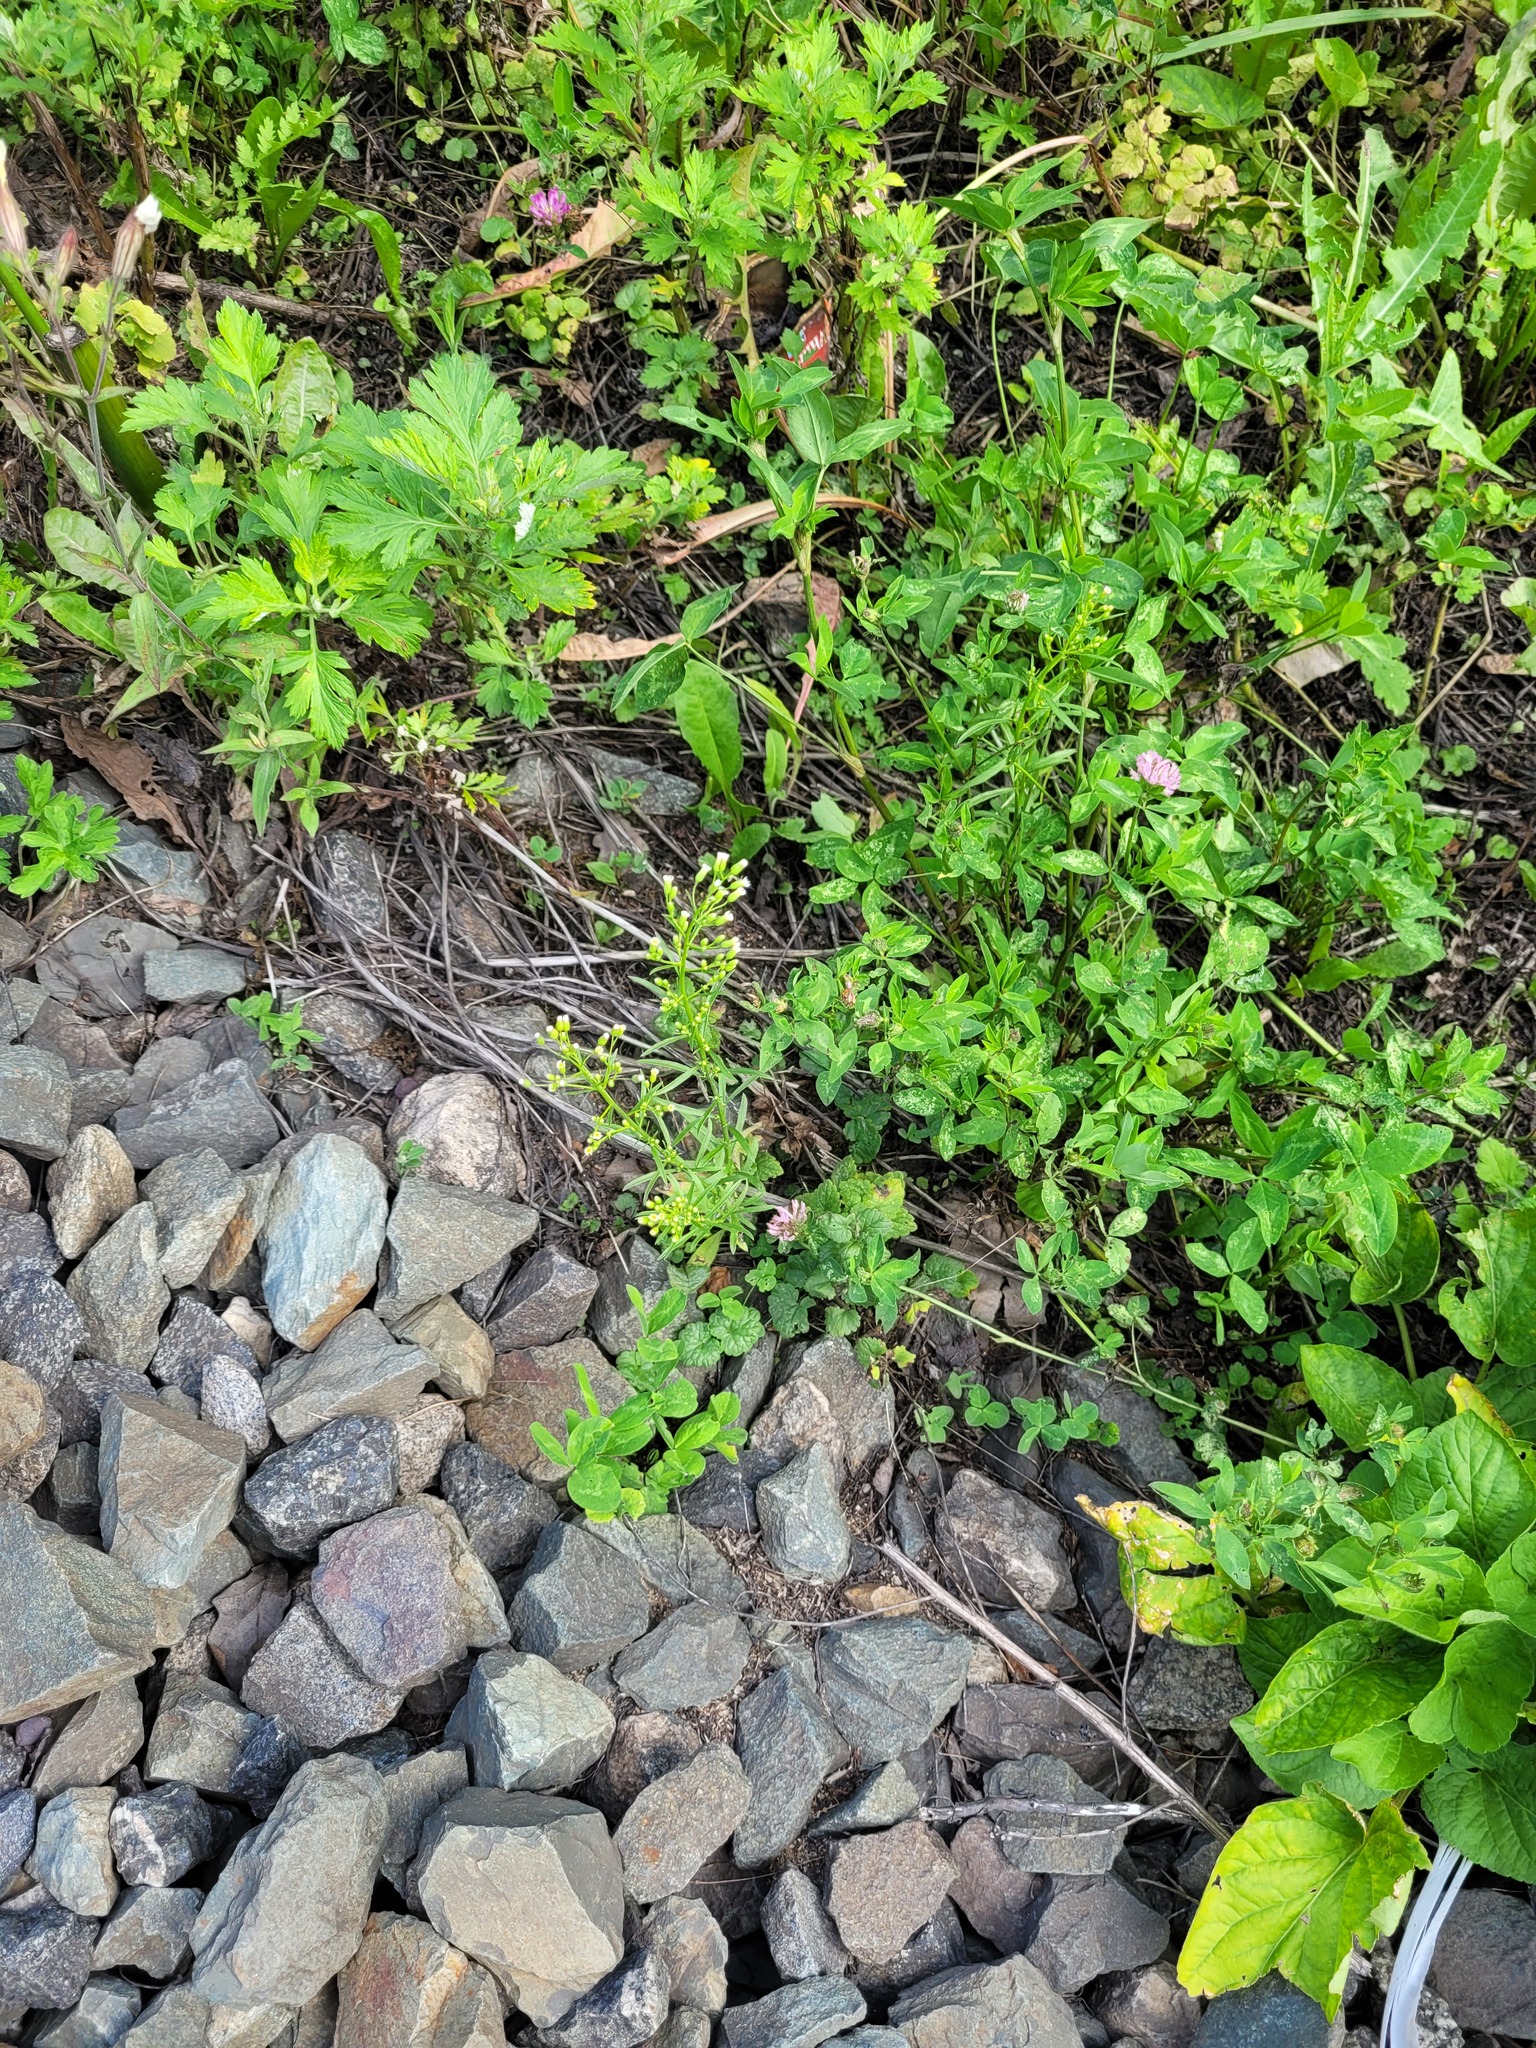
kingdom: Plantae
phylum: Tracheophyta
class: Magnoliopsida
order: Asterales
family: Asteraceae
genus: Erigeron
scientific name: Erigeron canadensis
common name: Canadian fleabane
